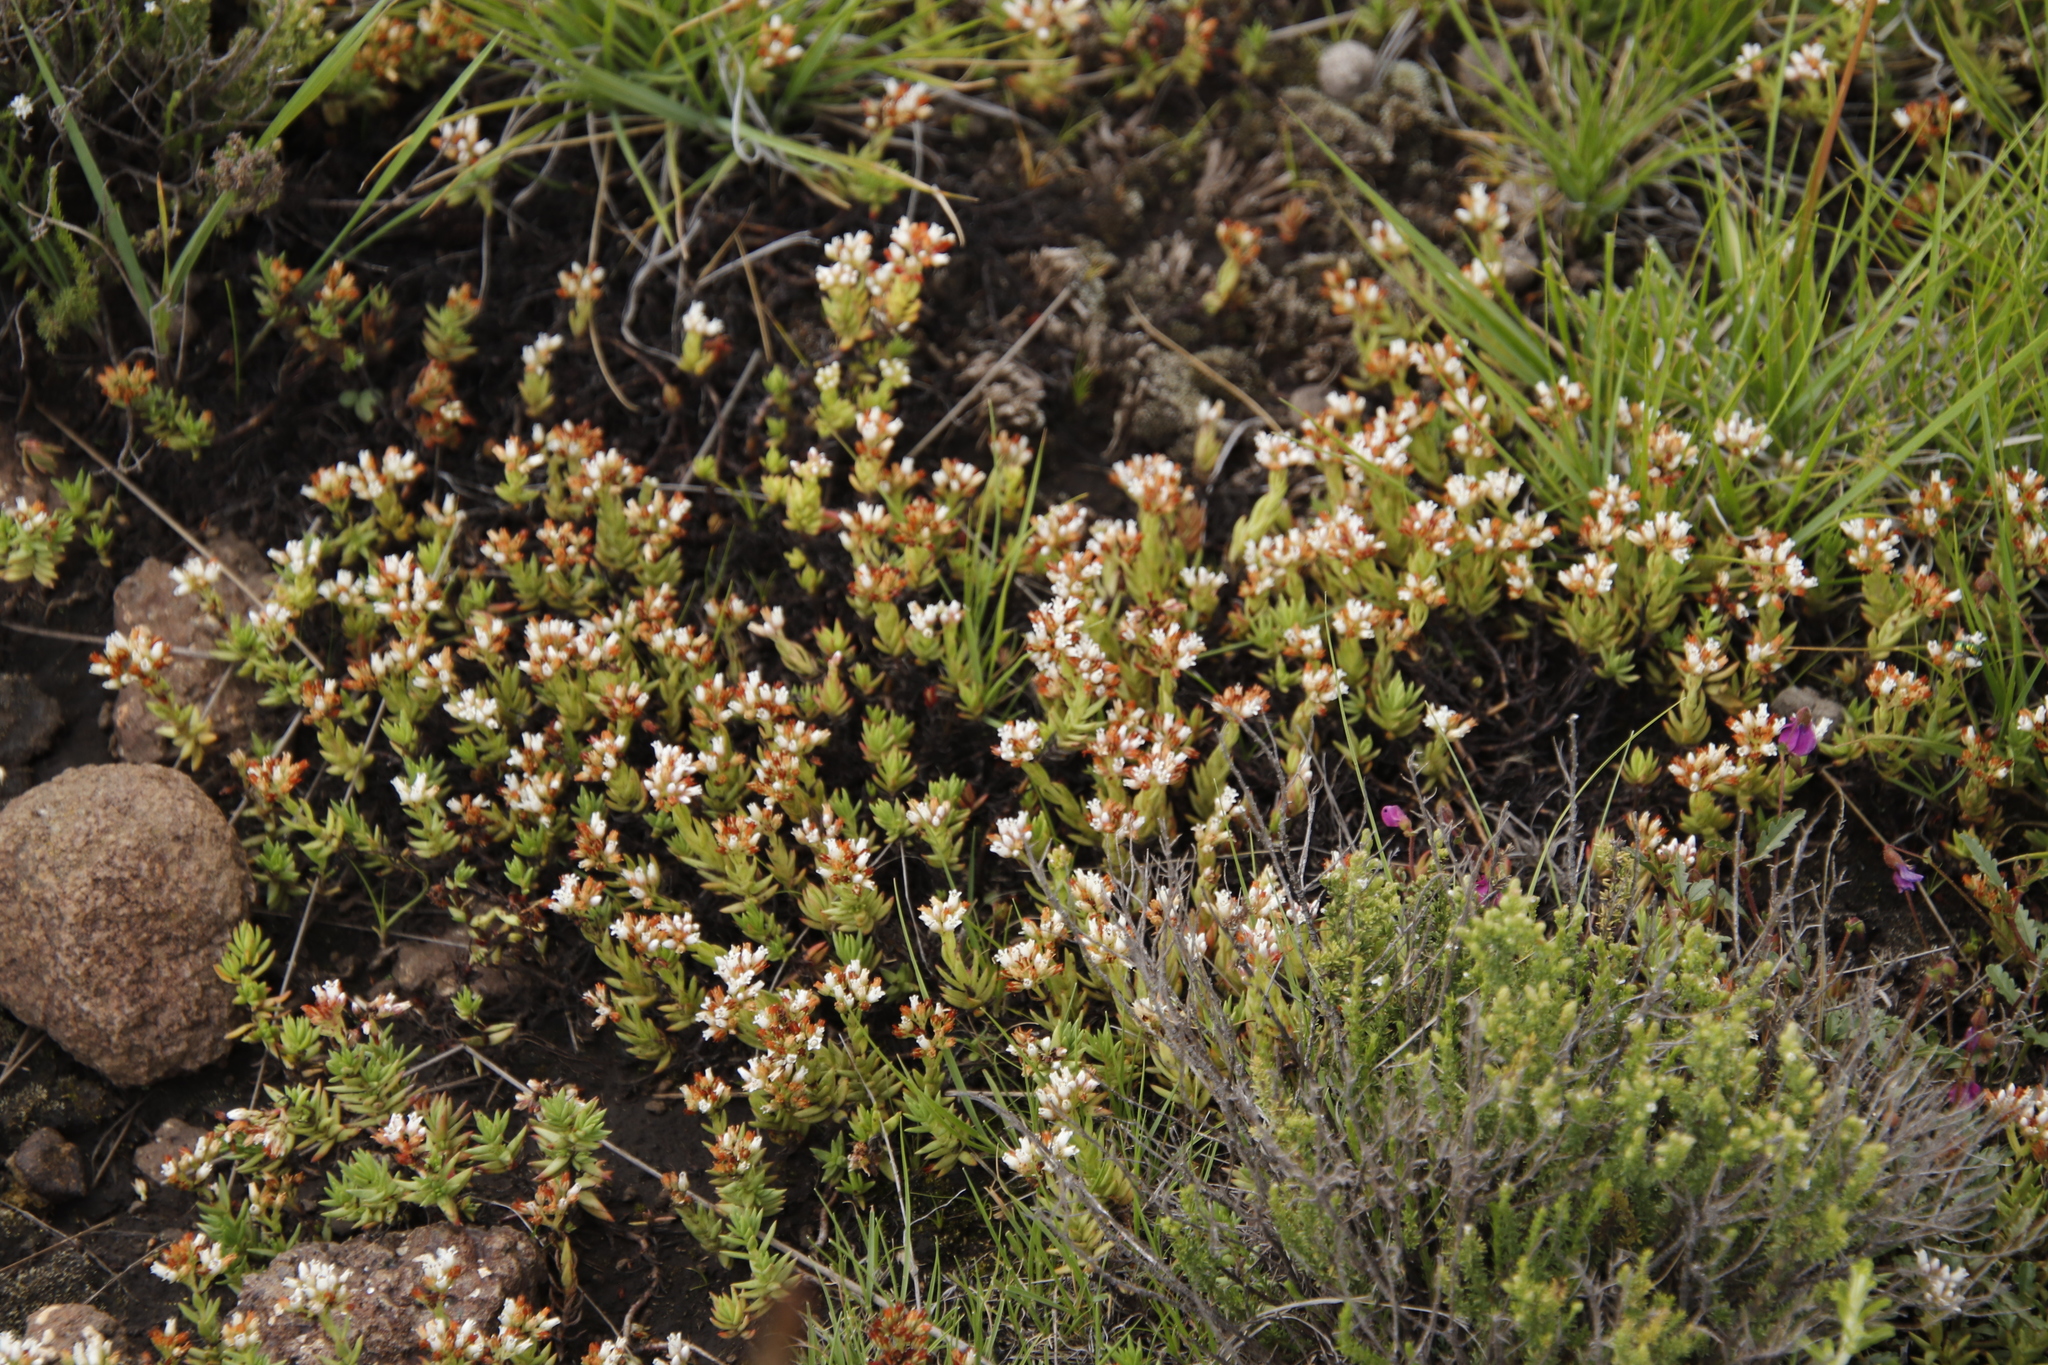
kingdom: Plantae
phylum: Tracheophyta
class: Magnoliopsida
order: Saxifragales
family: Crassulaceae
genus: Crassula
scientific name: Crassula dependens
